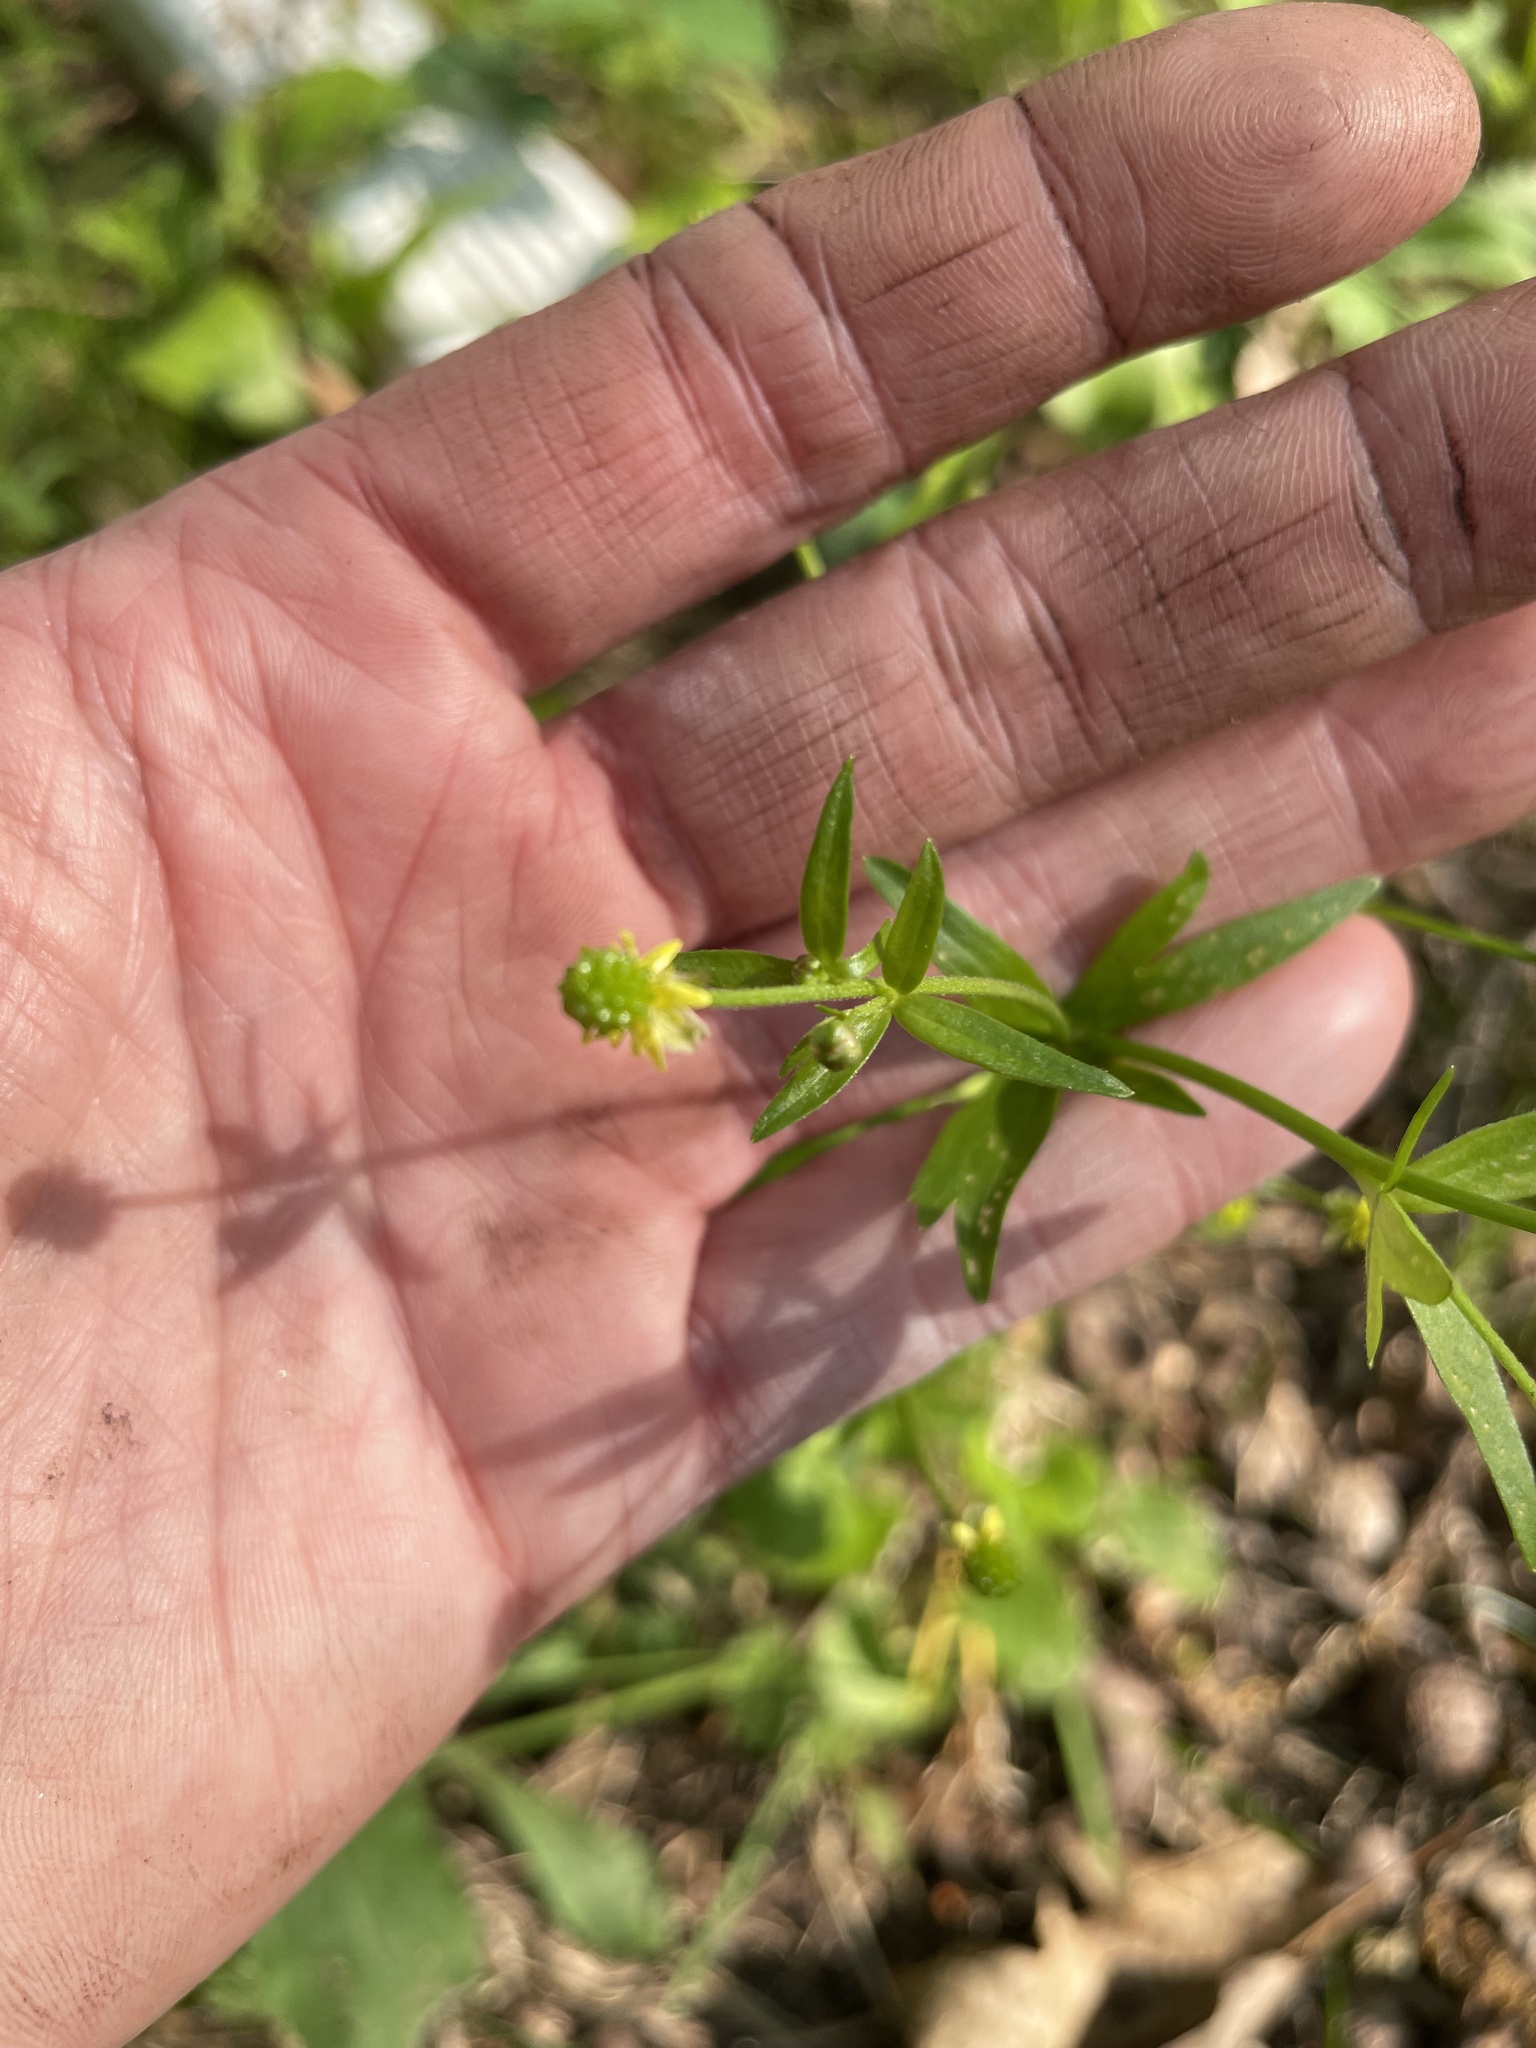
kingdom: Plantae
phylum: Tracheophyta
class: Magnoliopsida
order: Ranunculales
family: Ranunculaceae
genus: Ranunculus
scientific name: Ranunculus abortivus
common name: Early wood buttercup
